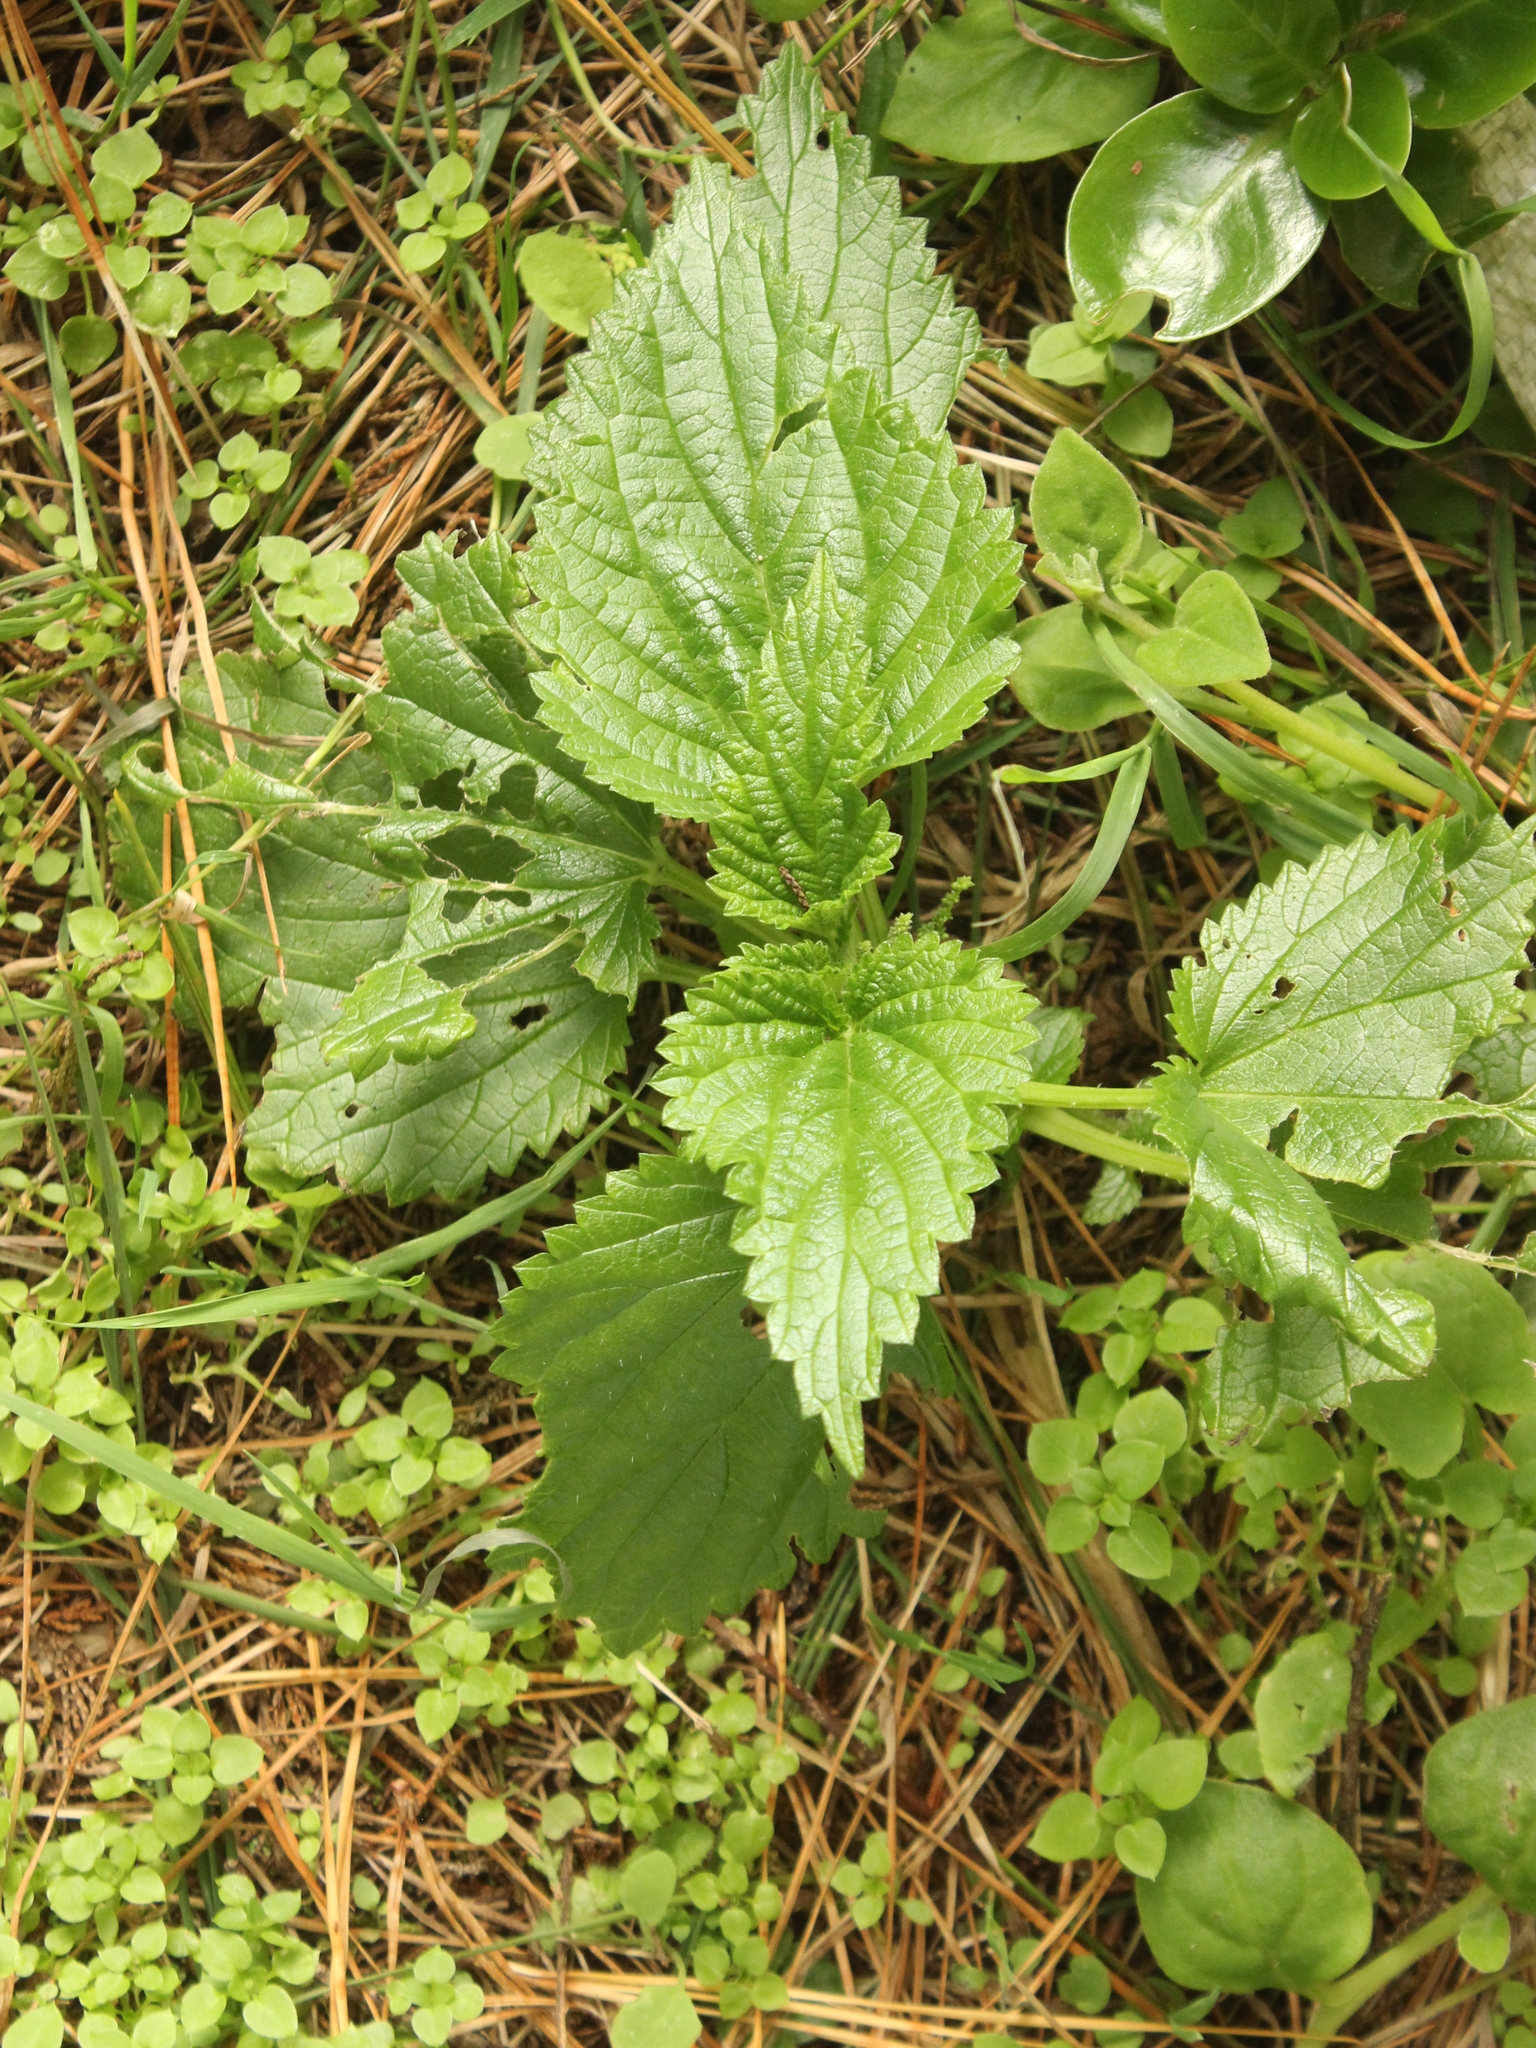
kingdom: Plantae
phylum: Tracheophyta
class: Magnoliopsida
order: Rosales
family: Urticaceae
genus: Urtica
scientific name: Urtica australis
